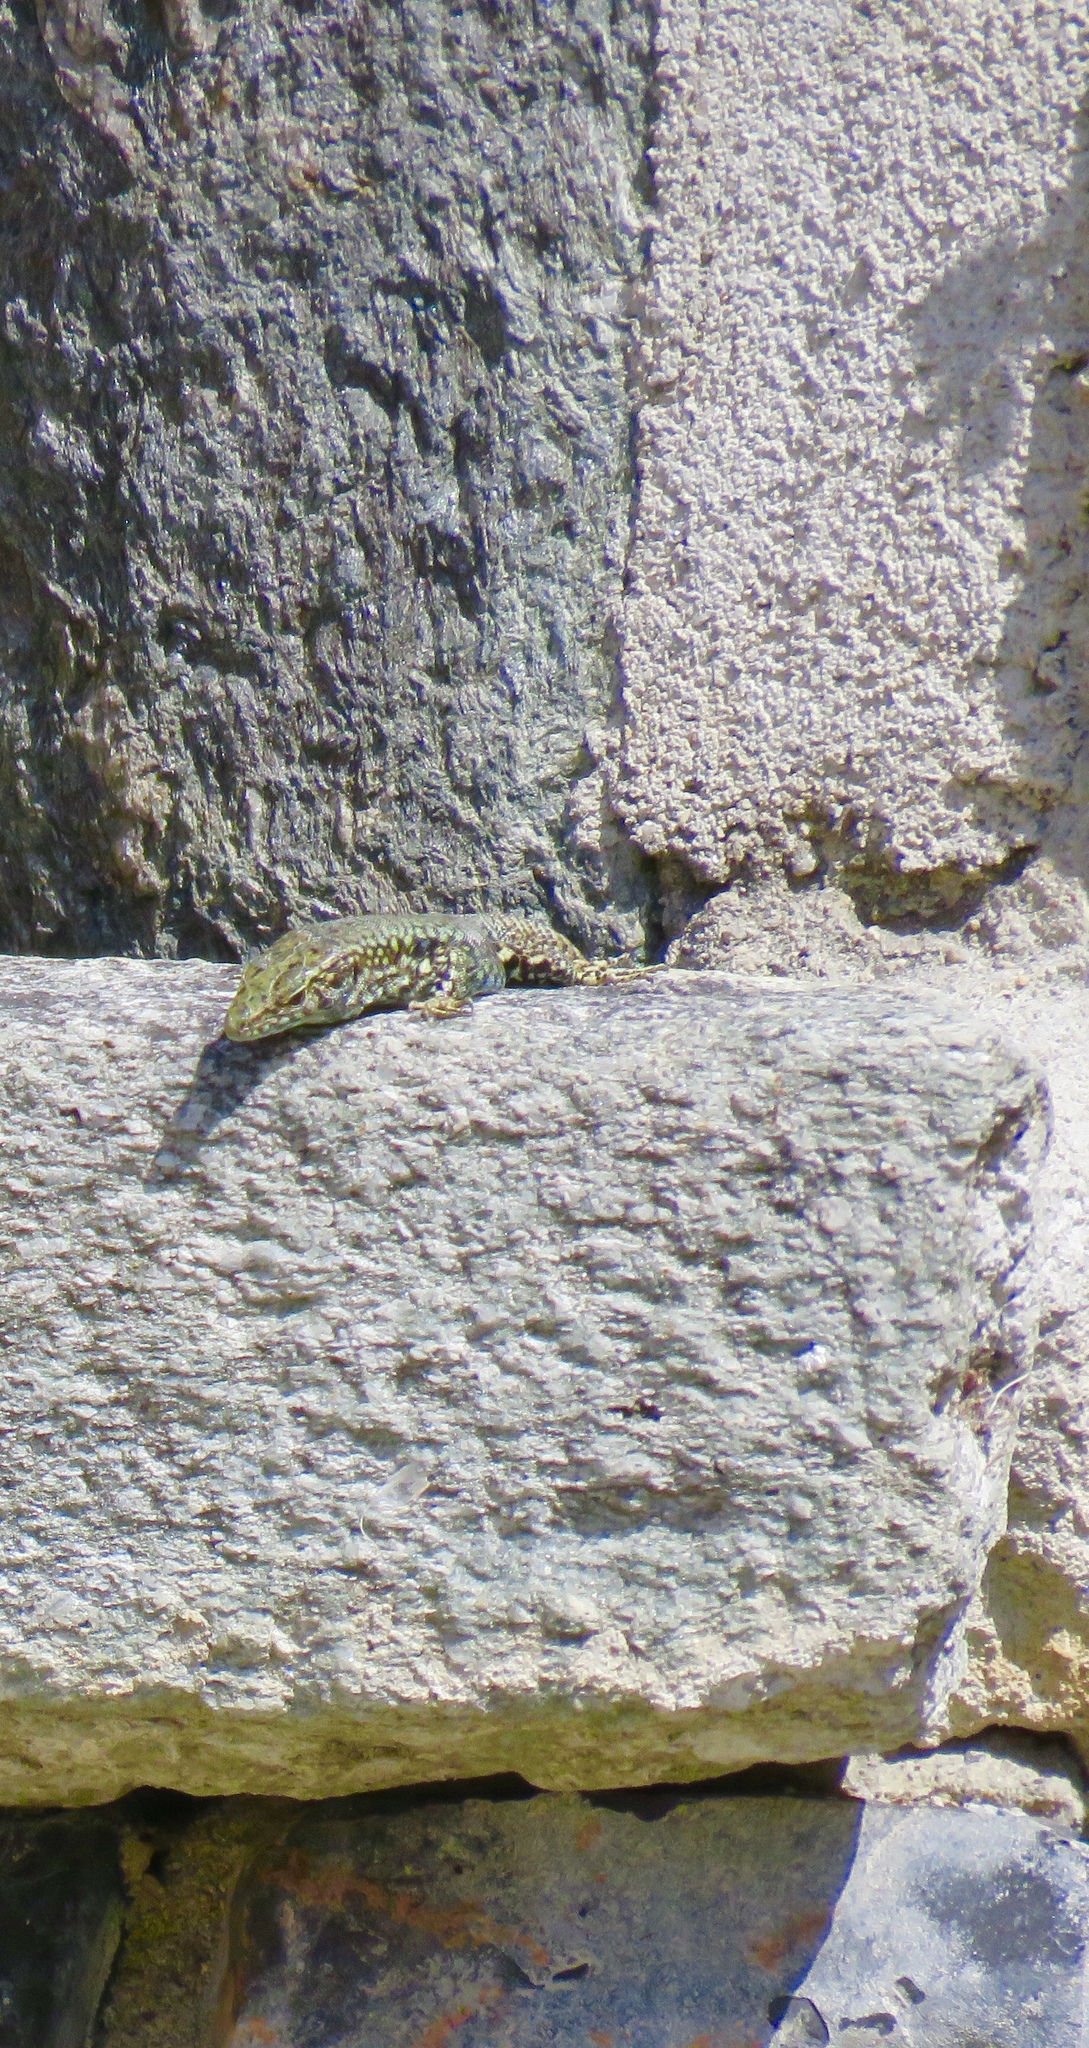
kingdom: Animalia
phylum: Chordata
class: Squamata
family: Lacertidae
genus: Podarcis
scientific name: Podarcis muralis
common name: Common wall lizard
